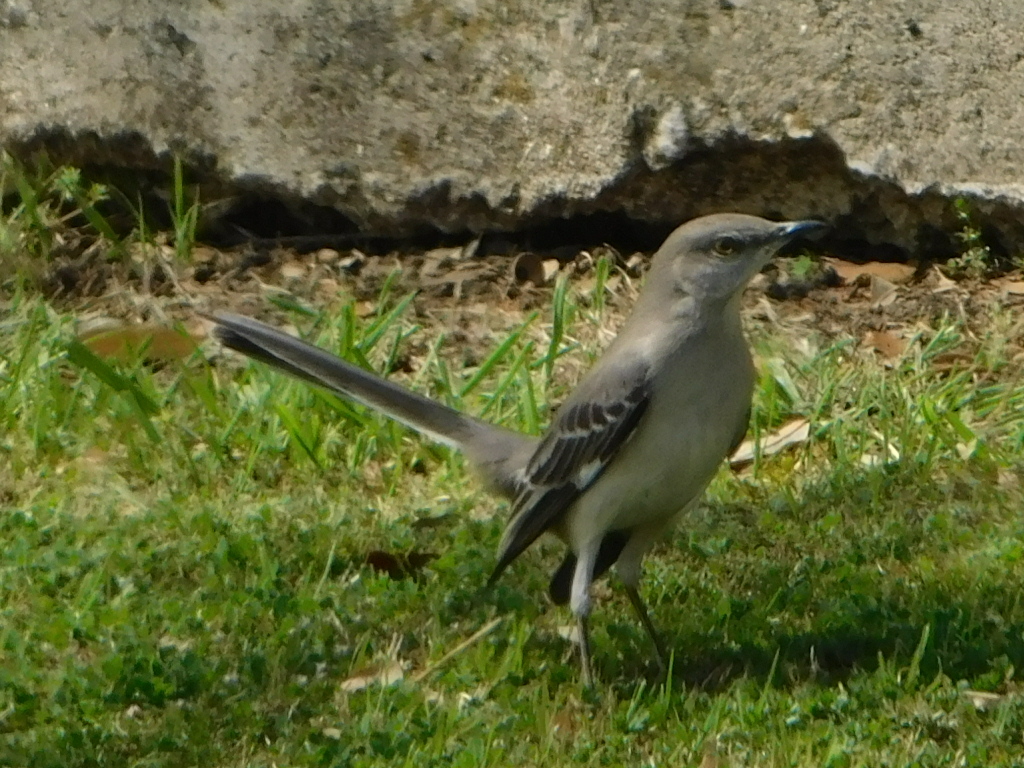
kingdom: Animalia
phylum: Chordata
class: Aves
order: Passeriformes
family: Mimidae
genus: Mimus
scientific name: Mimus polyglottos
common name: Northern mockingbird
